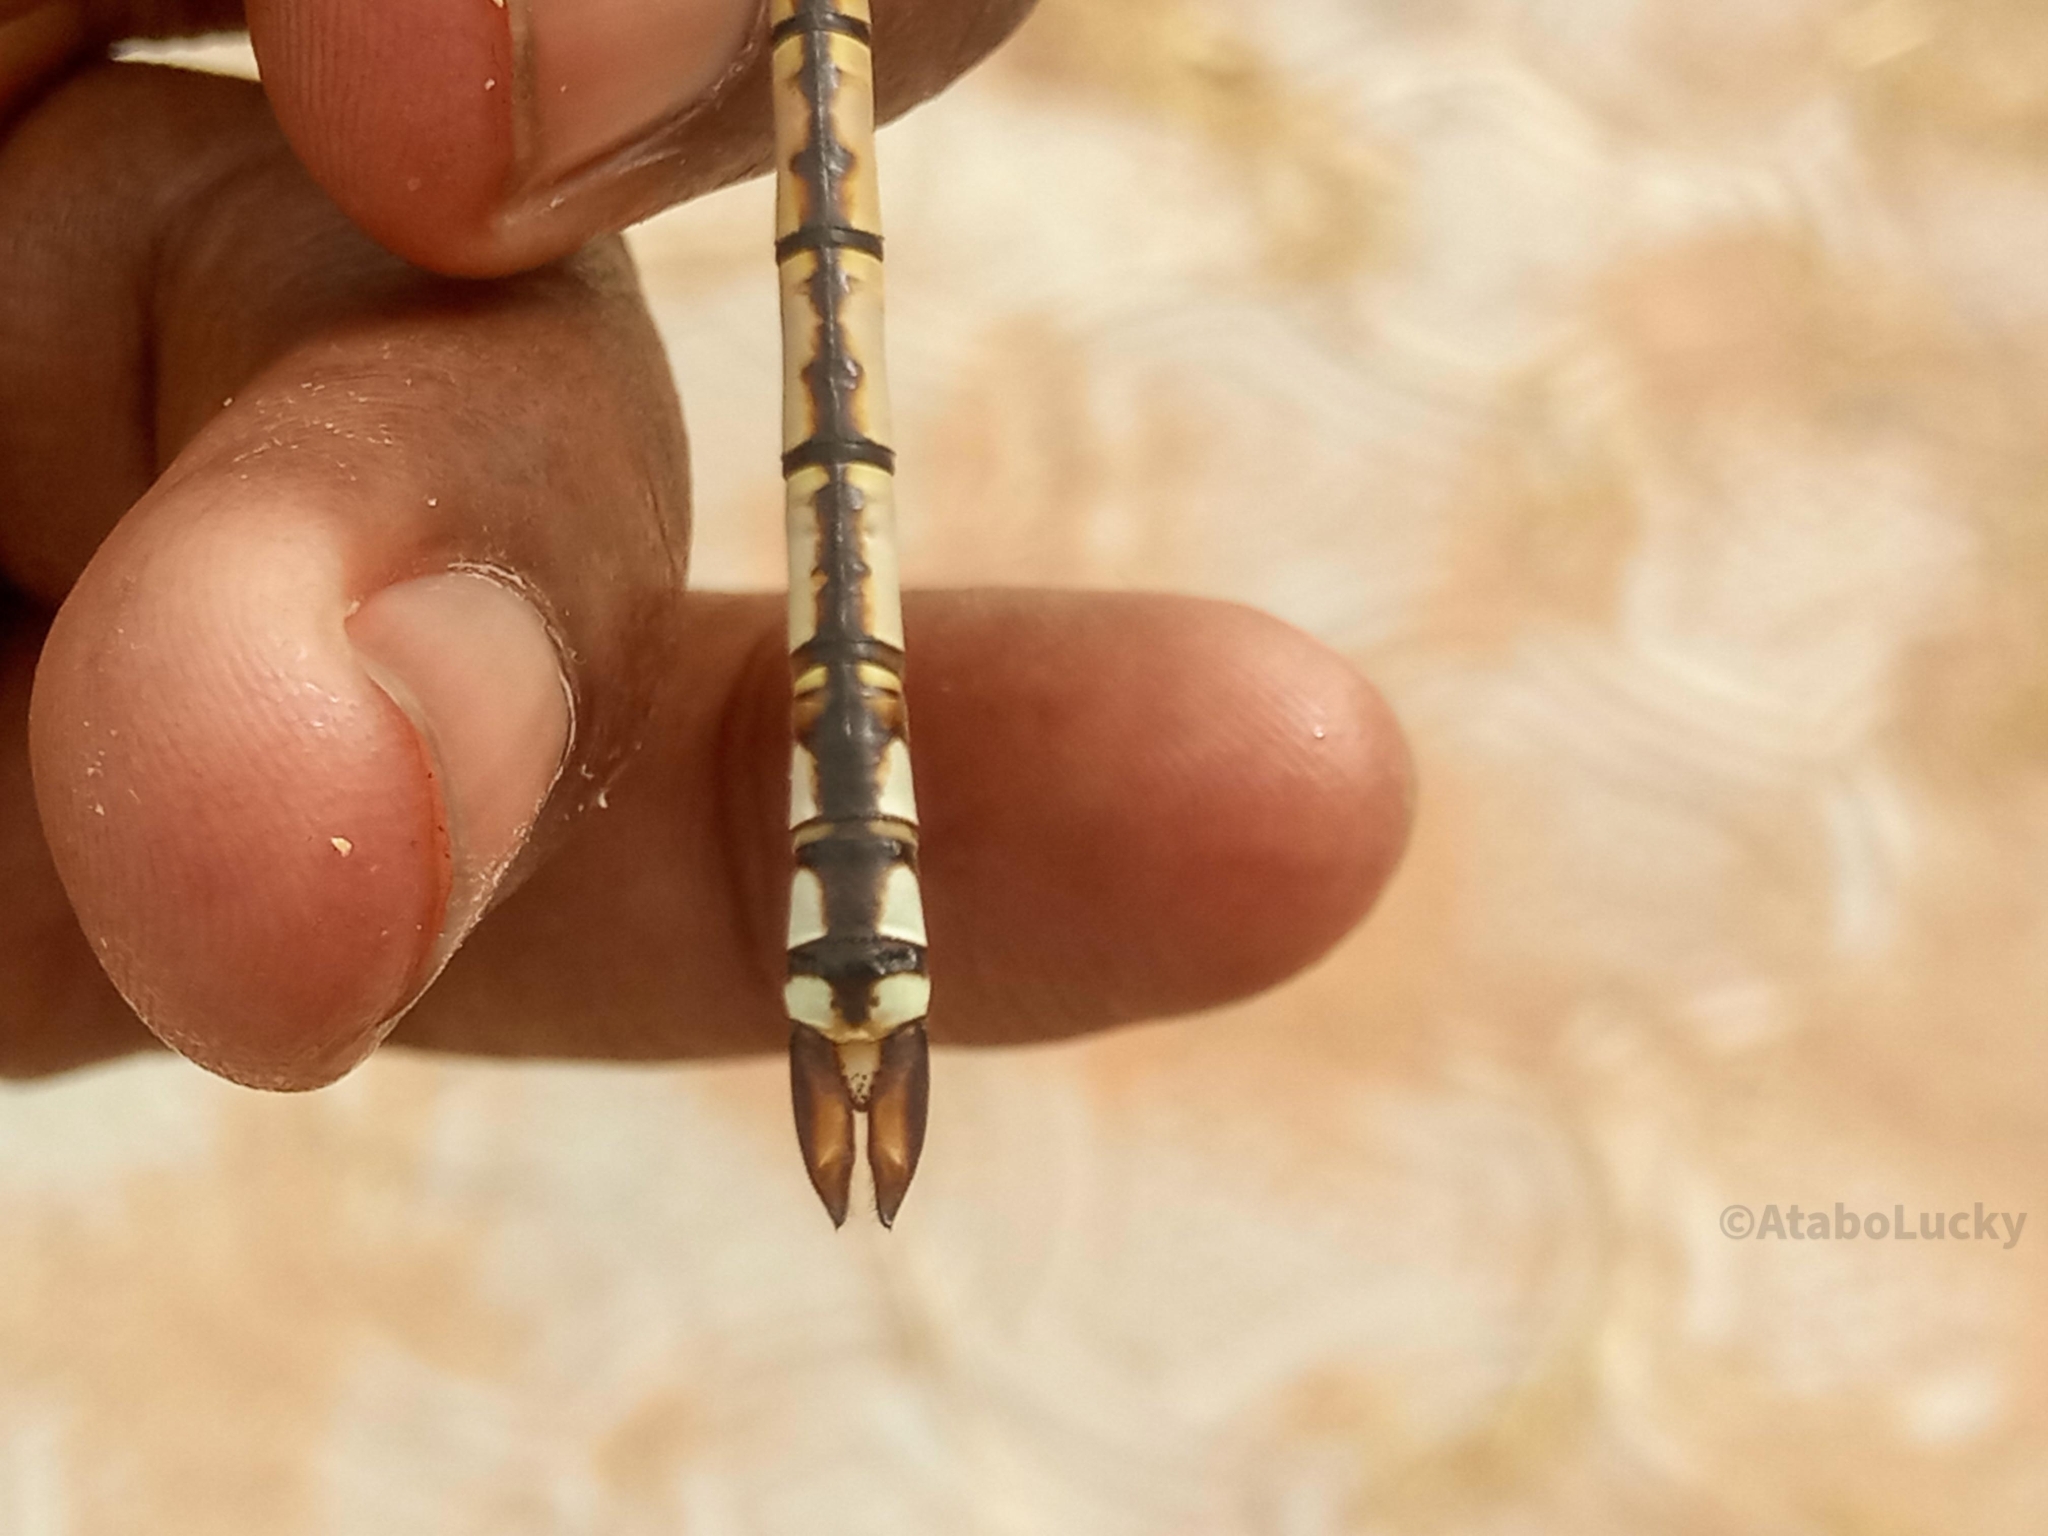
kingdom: Animalia
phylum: Arthropoda
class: Insecta
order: Odonata
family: Aeshnidae
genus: Anax
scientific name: Anax ephippiger
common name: Vagrant emperor
